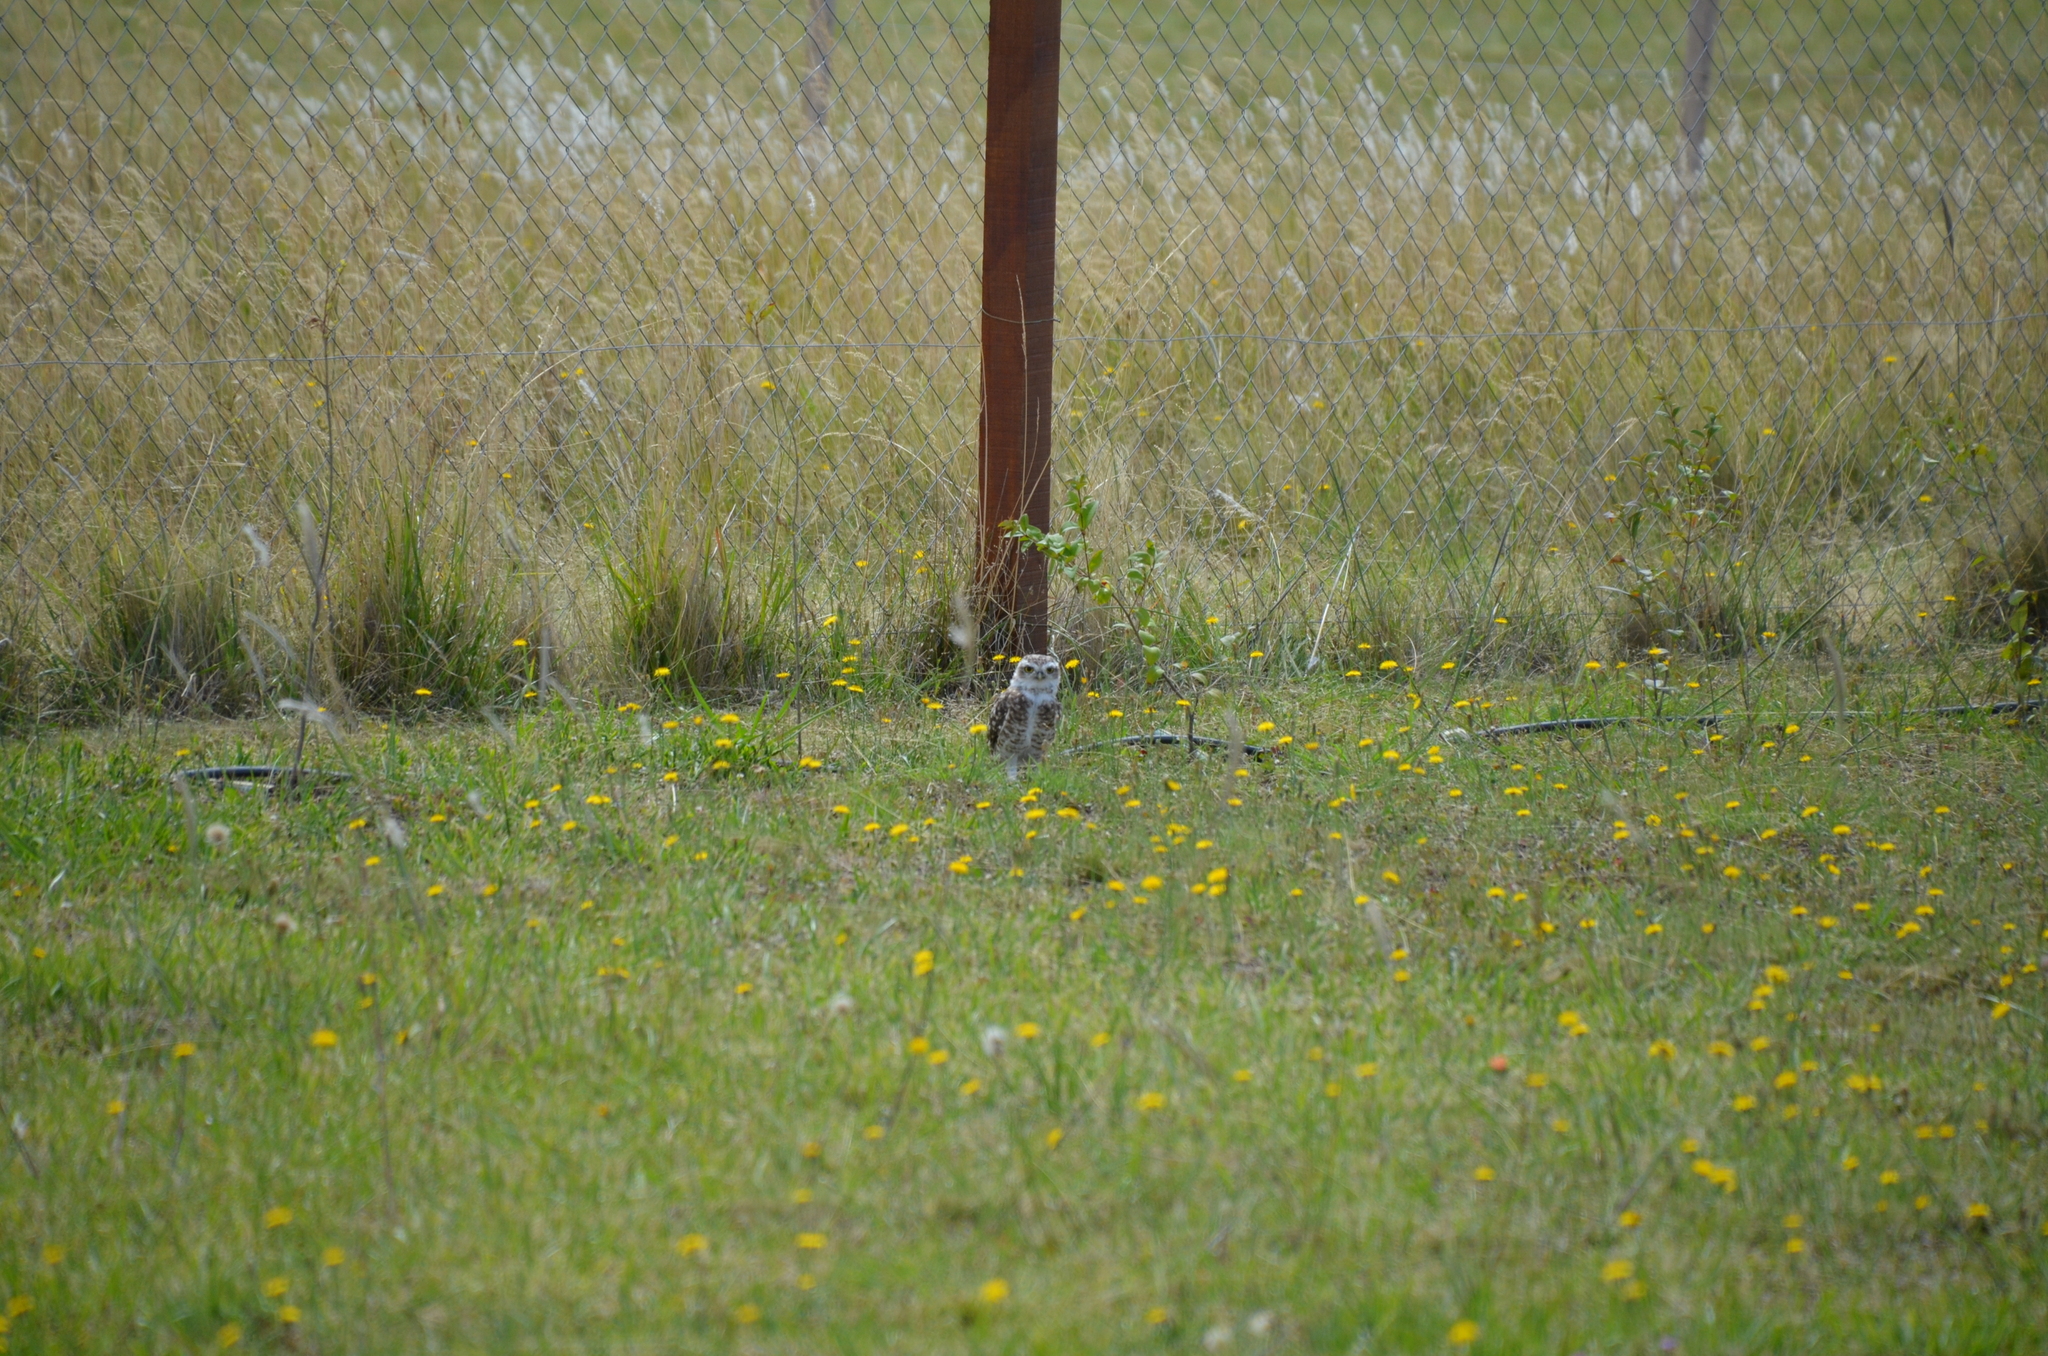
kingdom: Animalia
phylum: Chordata
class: Aves
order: Strigiformes
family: Strigidae
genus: Athene
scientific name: Athene cunicularia
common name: Burrowing owl
